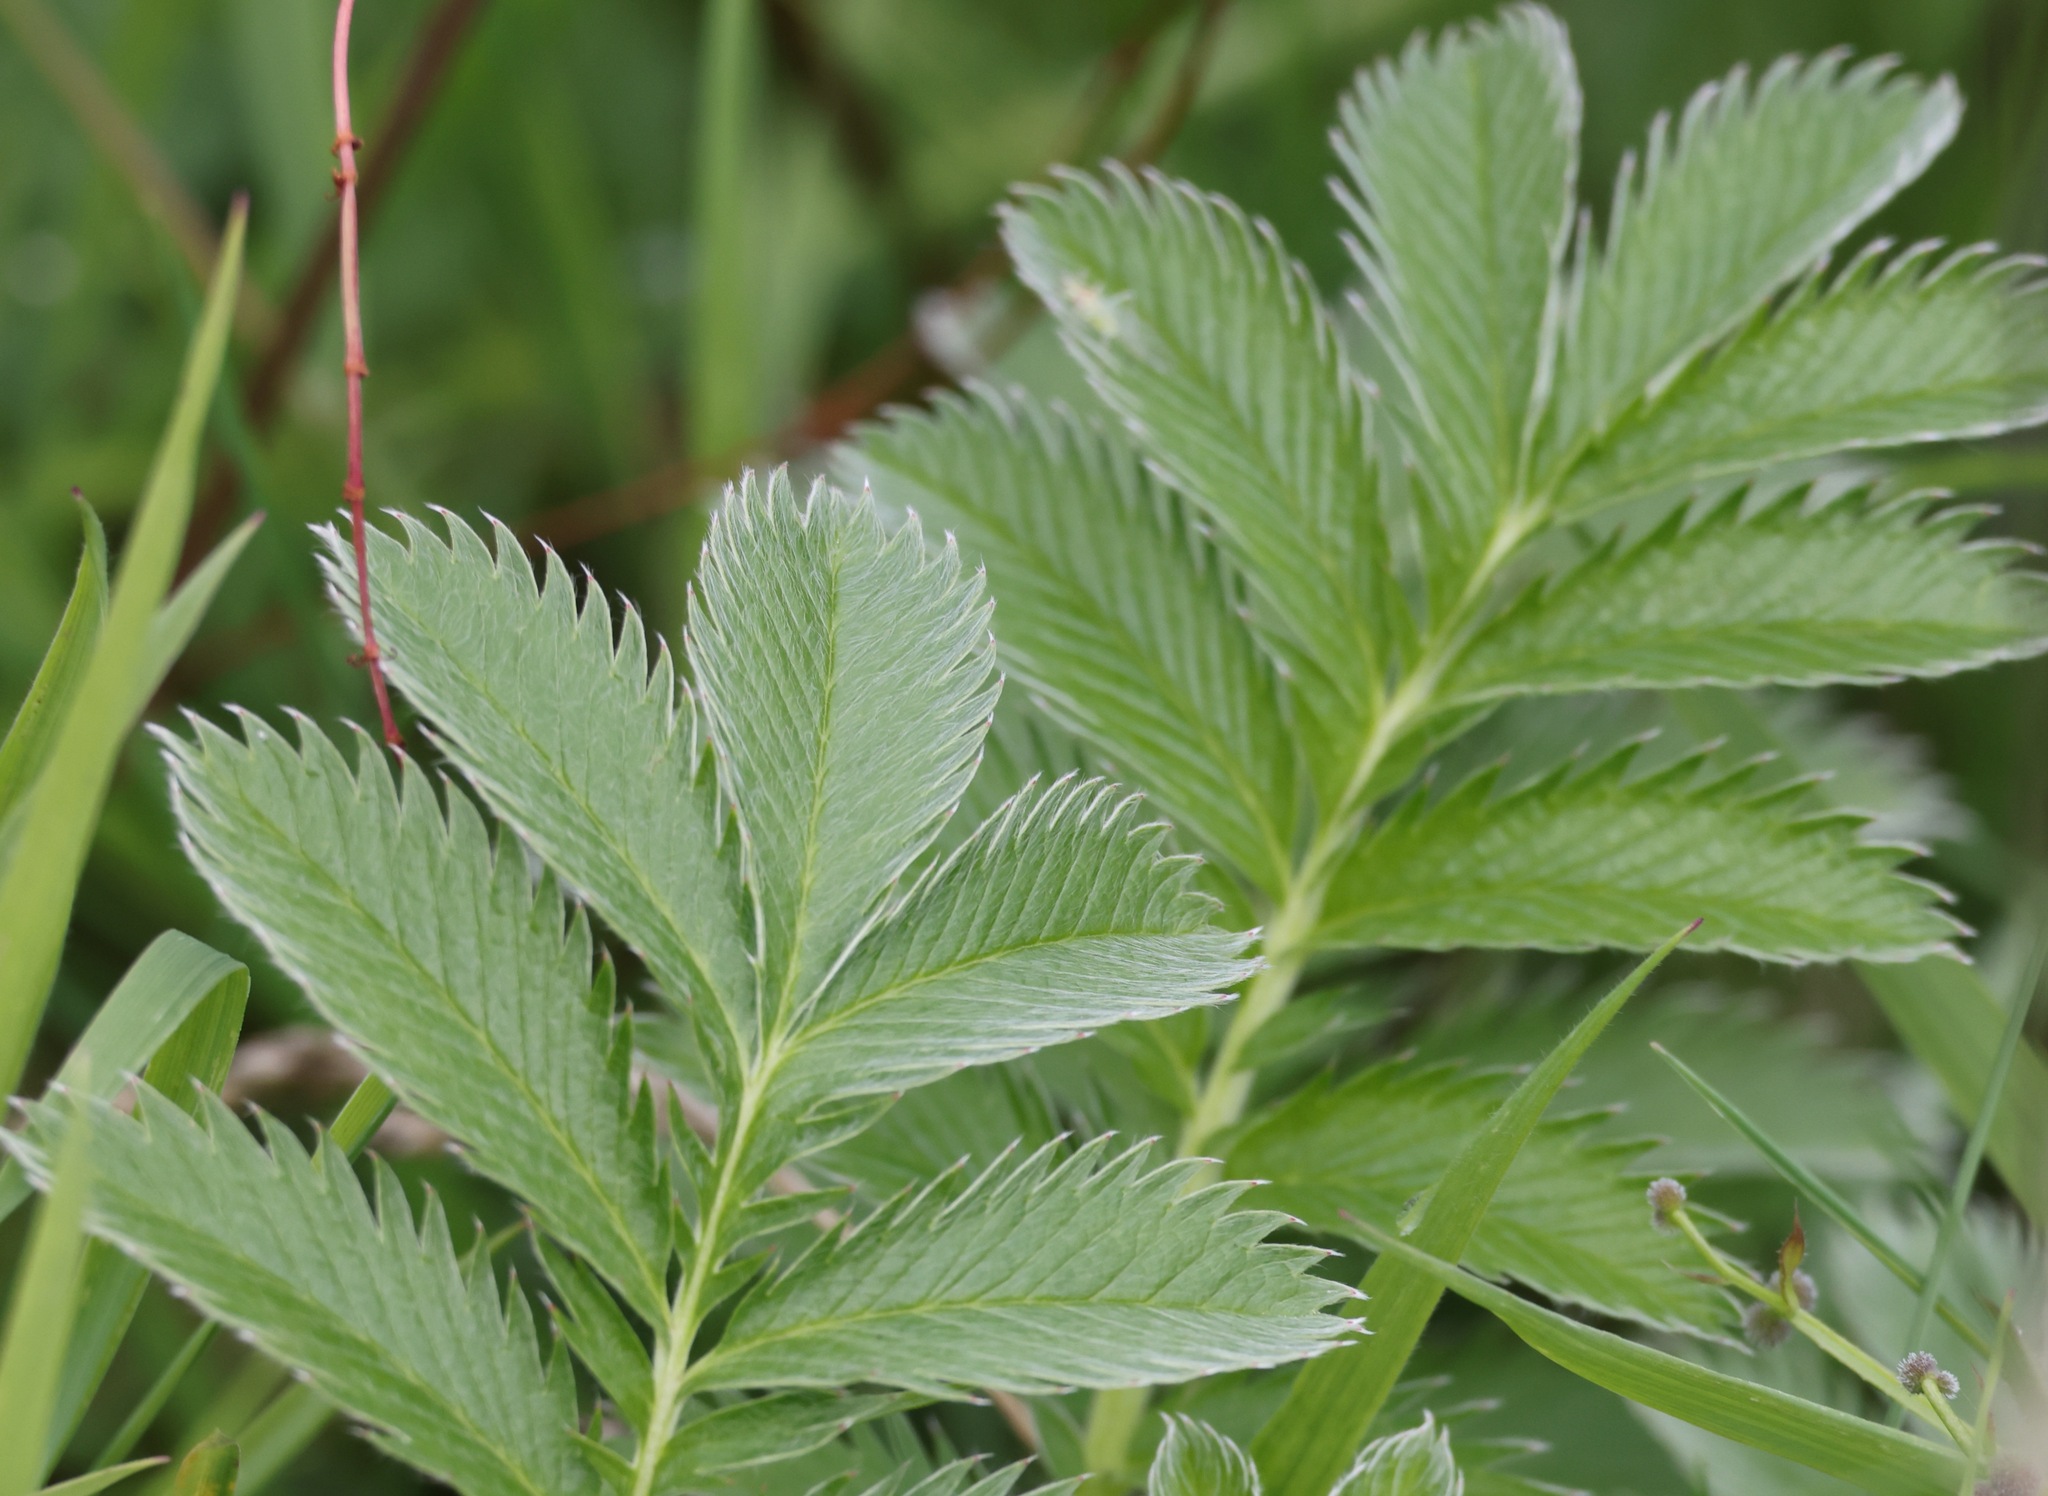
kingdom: Plantae
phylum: Tracheophyta
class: Magnoliopsida
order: Rosales
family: Rosaceae
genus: Argentina
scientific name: Argentina anserina
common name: Common silverweed
